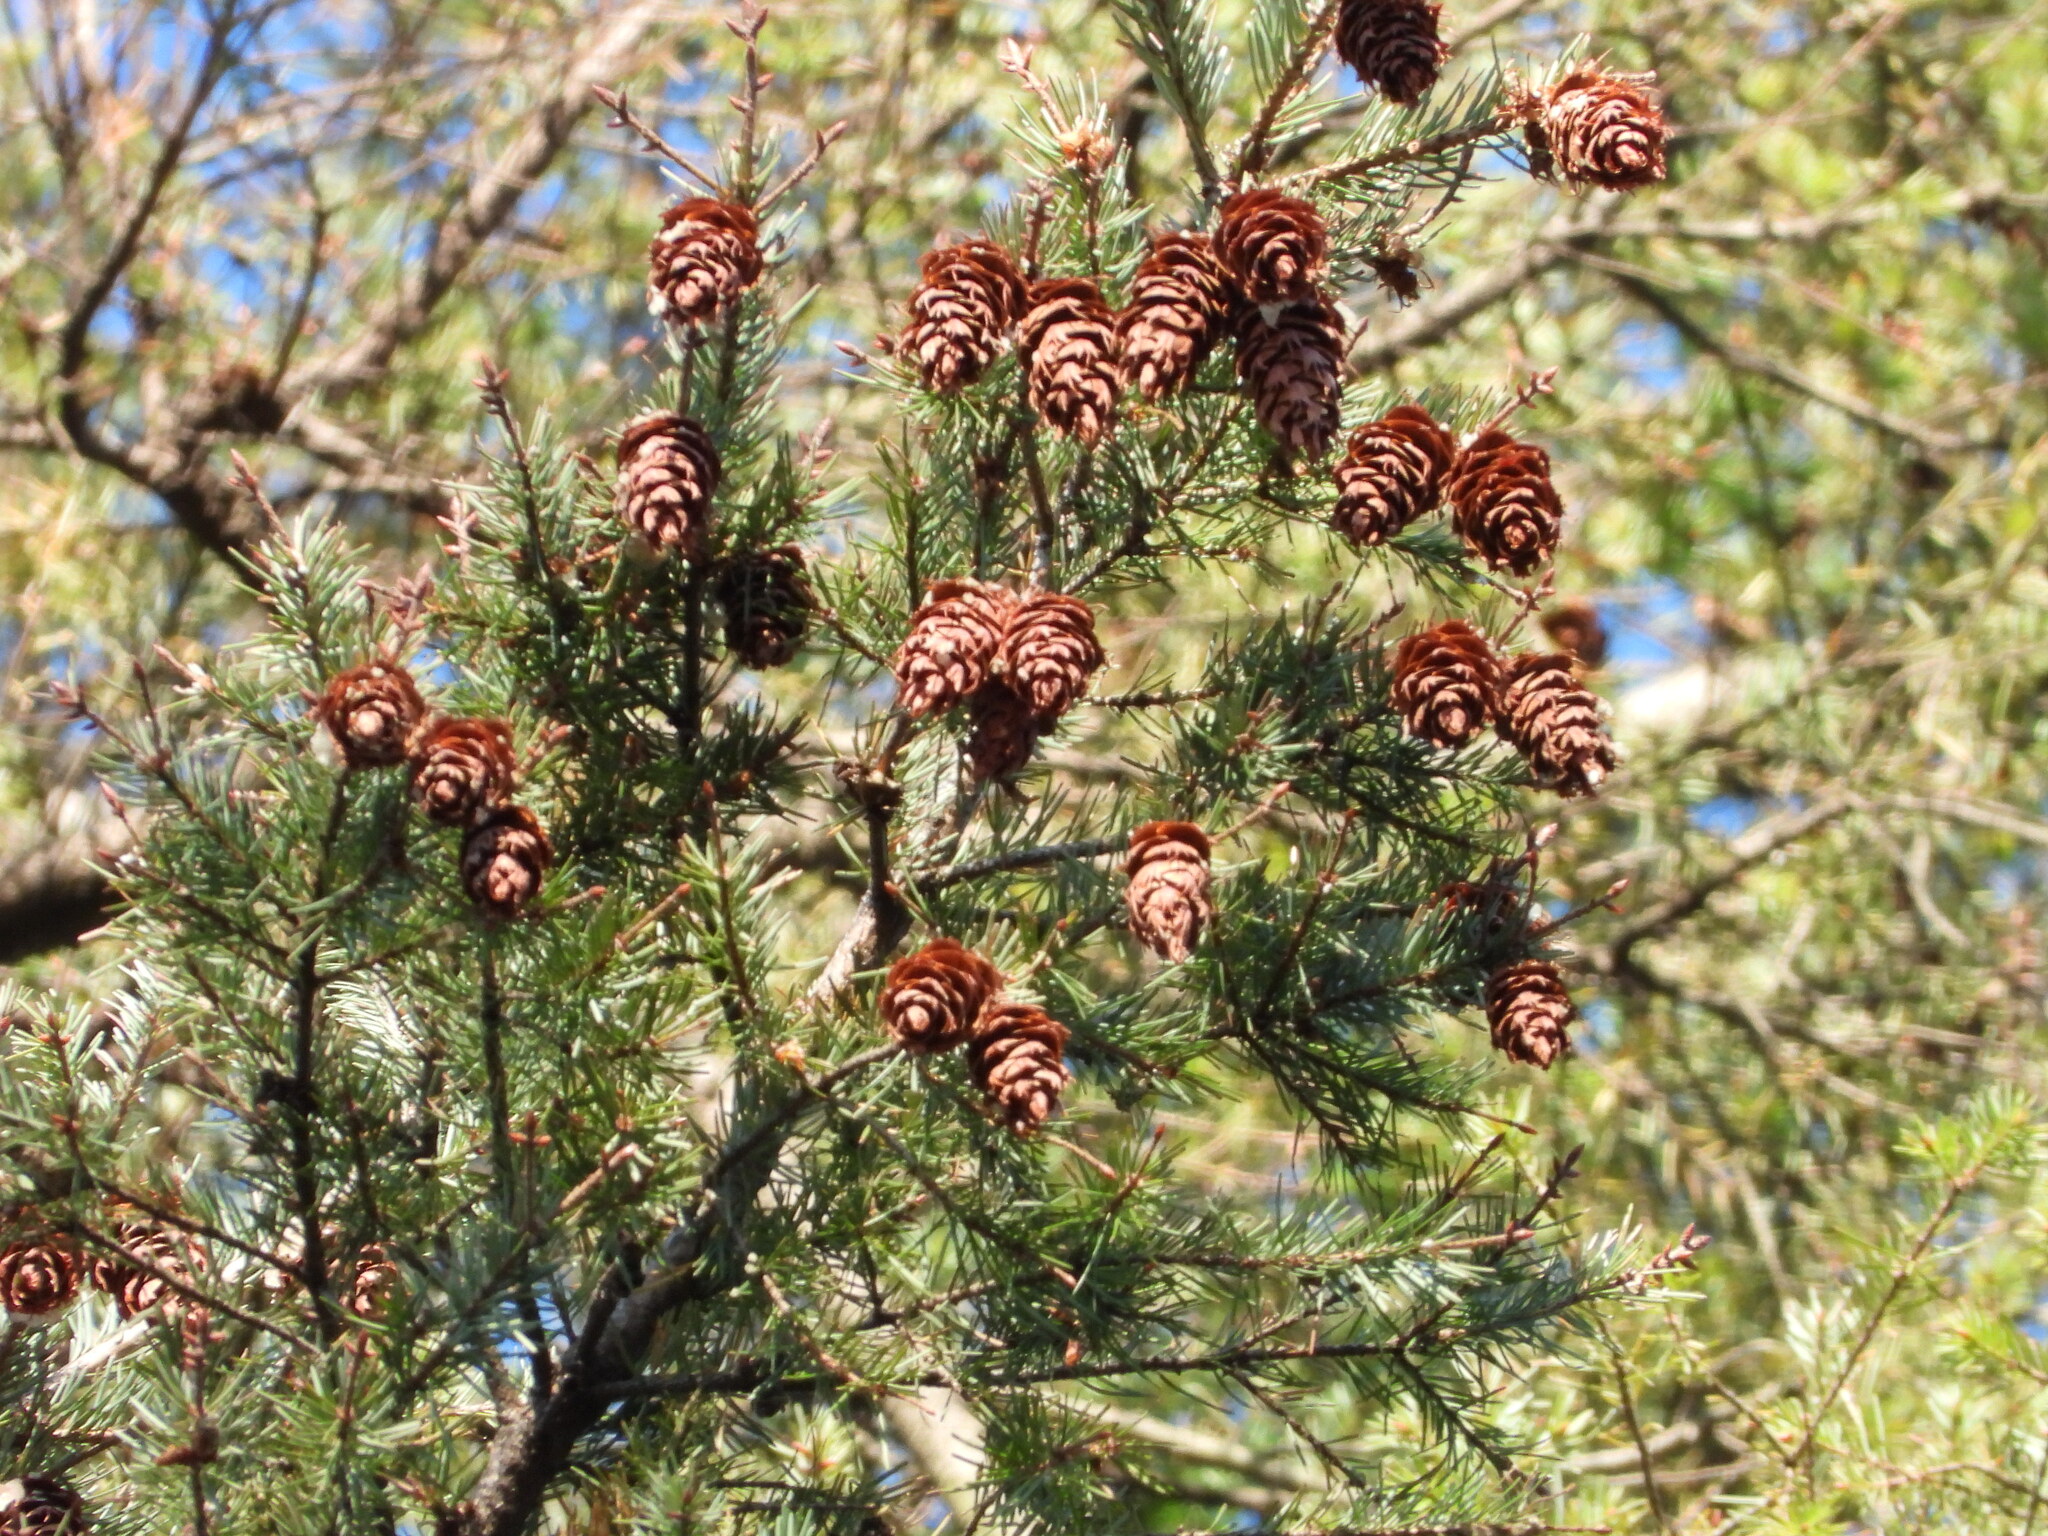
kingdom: Plantae
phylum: Tracheophyta
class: Pinopsida
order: Pinales
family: Pinaceae
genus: Pseudotsuga
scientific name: Pseudotsuga menziesii
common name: Douglas fir
